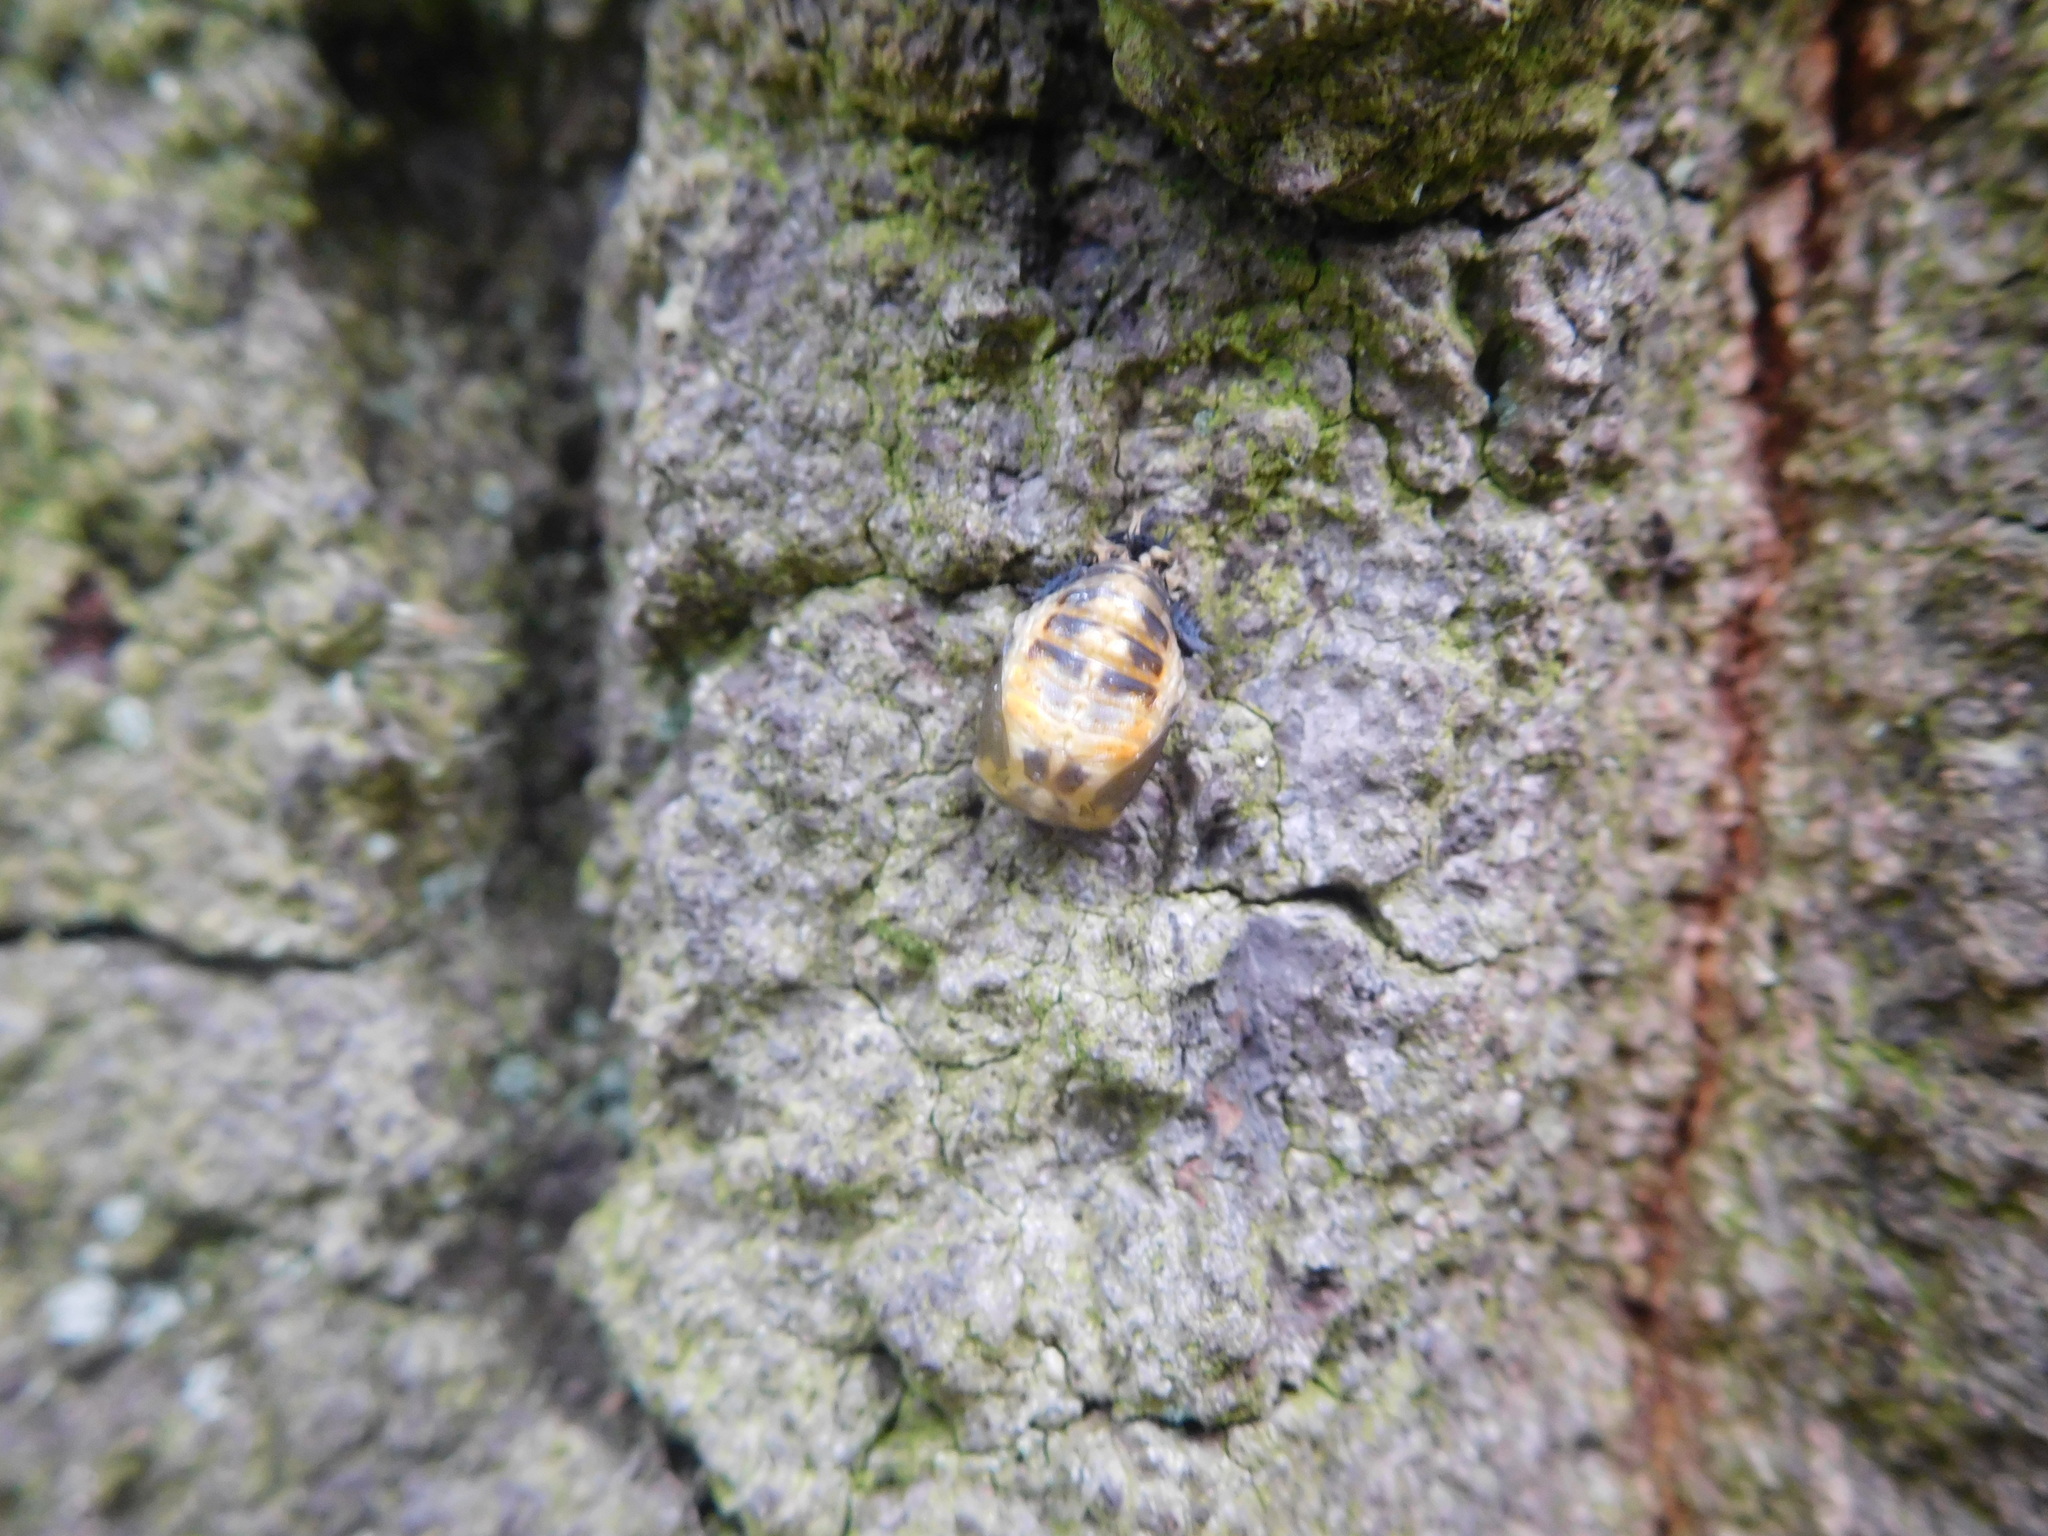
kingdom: Animalia
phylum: Arthropoda
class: Insecta
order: Coleoptera
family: Coccinellidae
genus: Harmonia
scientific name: Harmonia axyridis
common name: Harlequin ladybird
